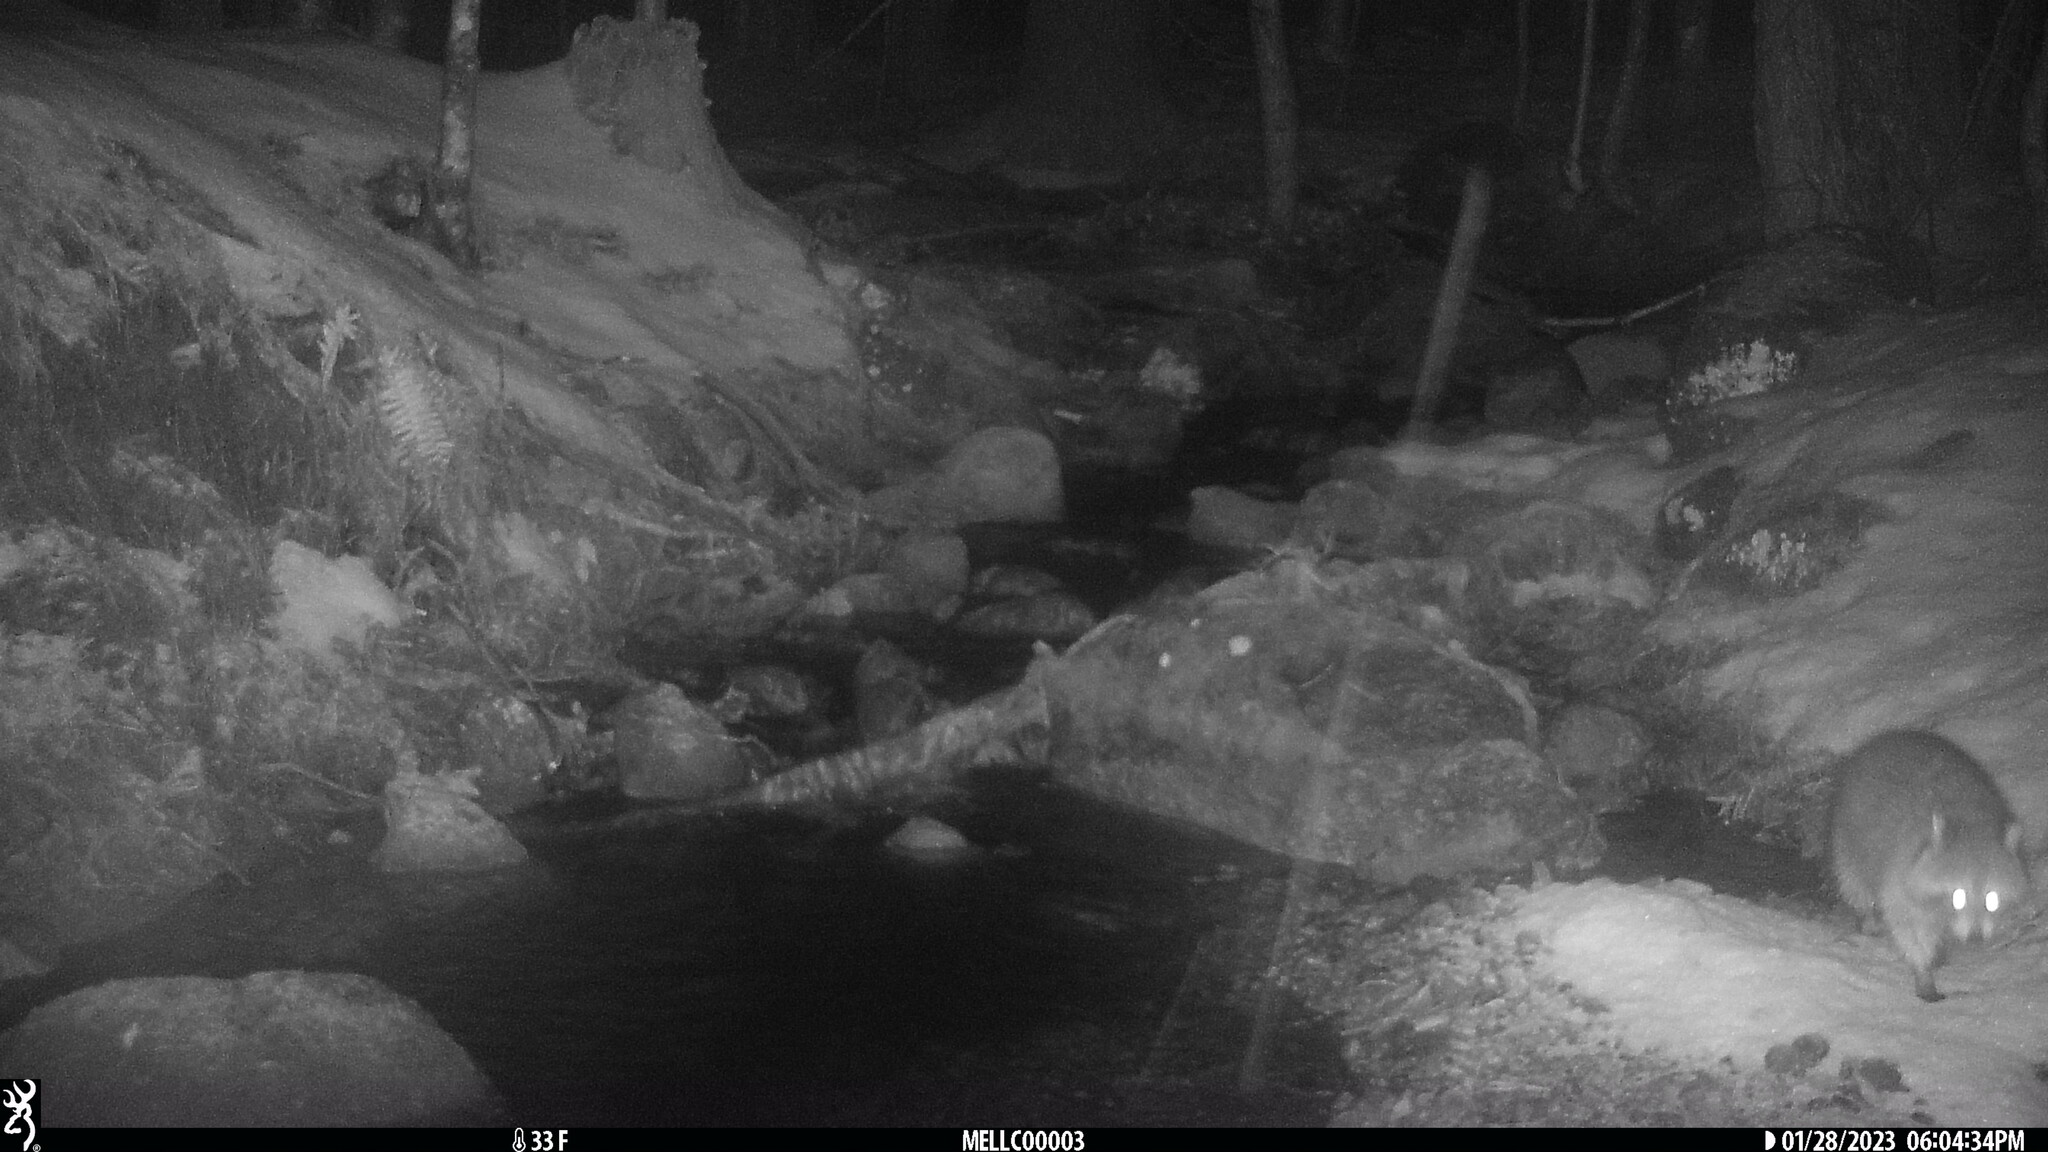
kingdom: Animalia
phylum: Chordata
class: Mammalia
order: Carnivora
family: Procyonidae
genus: Procyon
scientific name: Procyon lotor
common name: Raccoon
